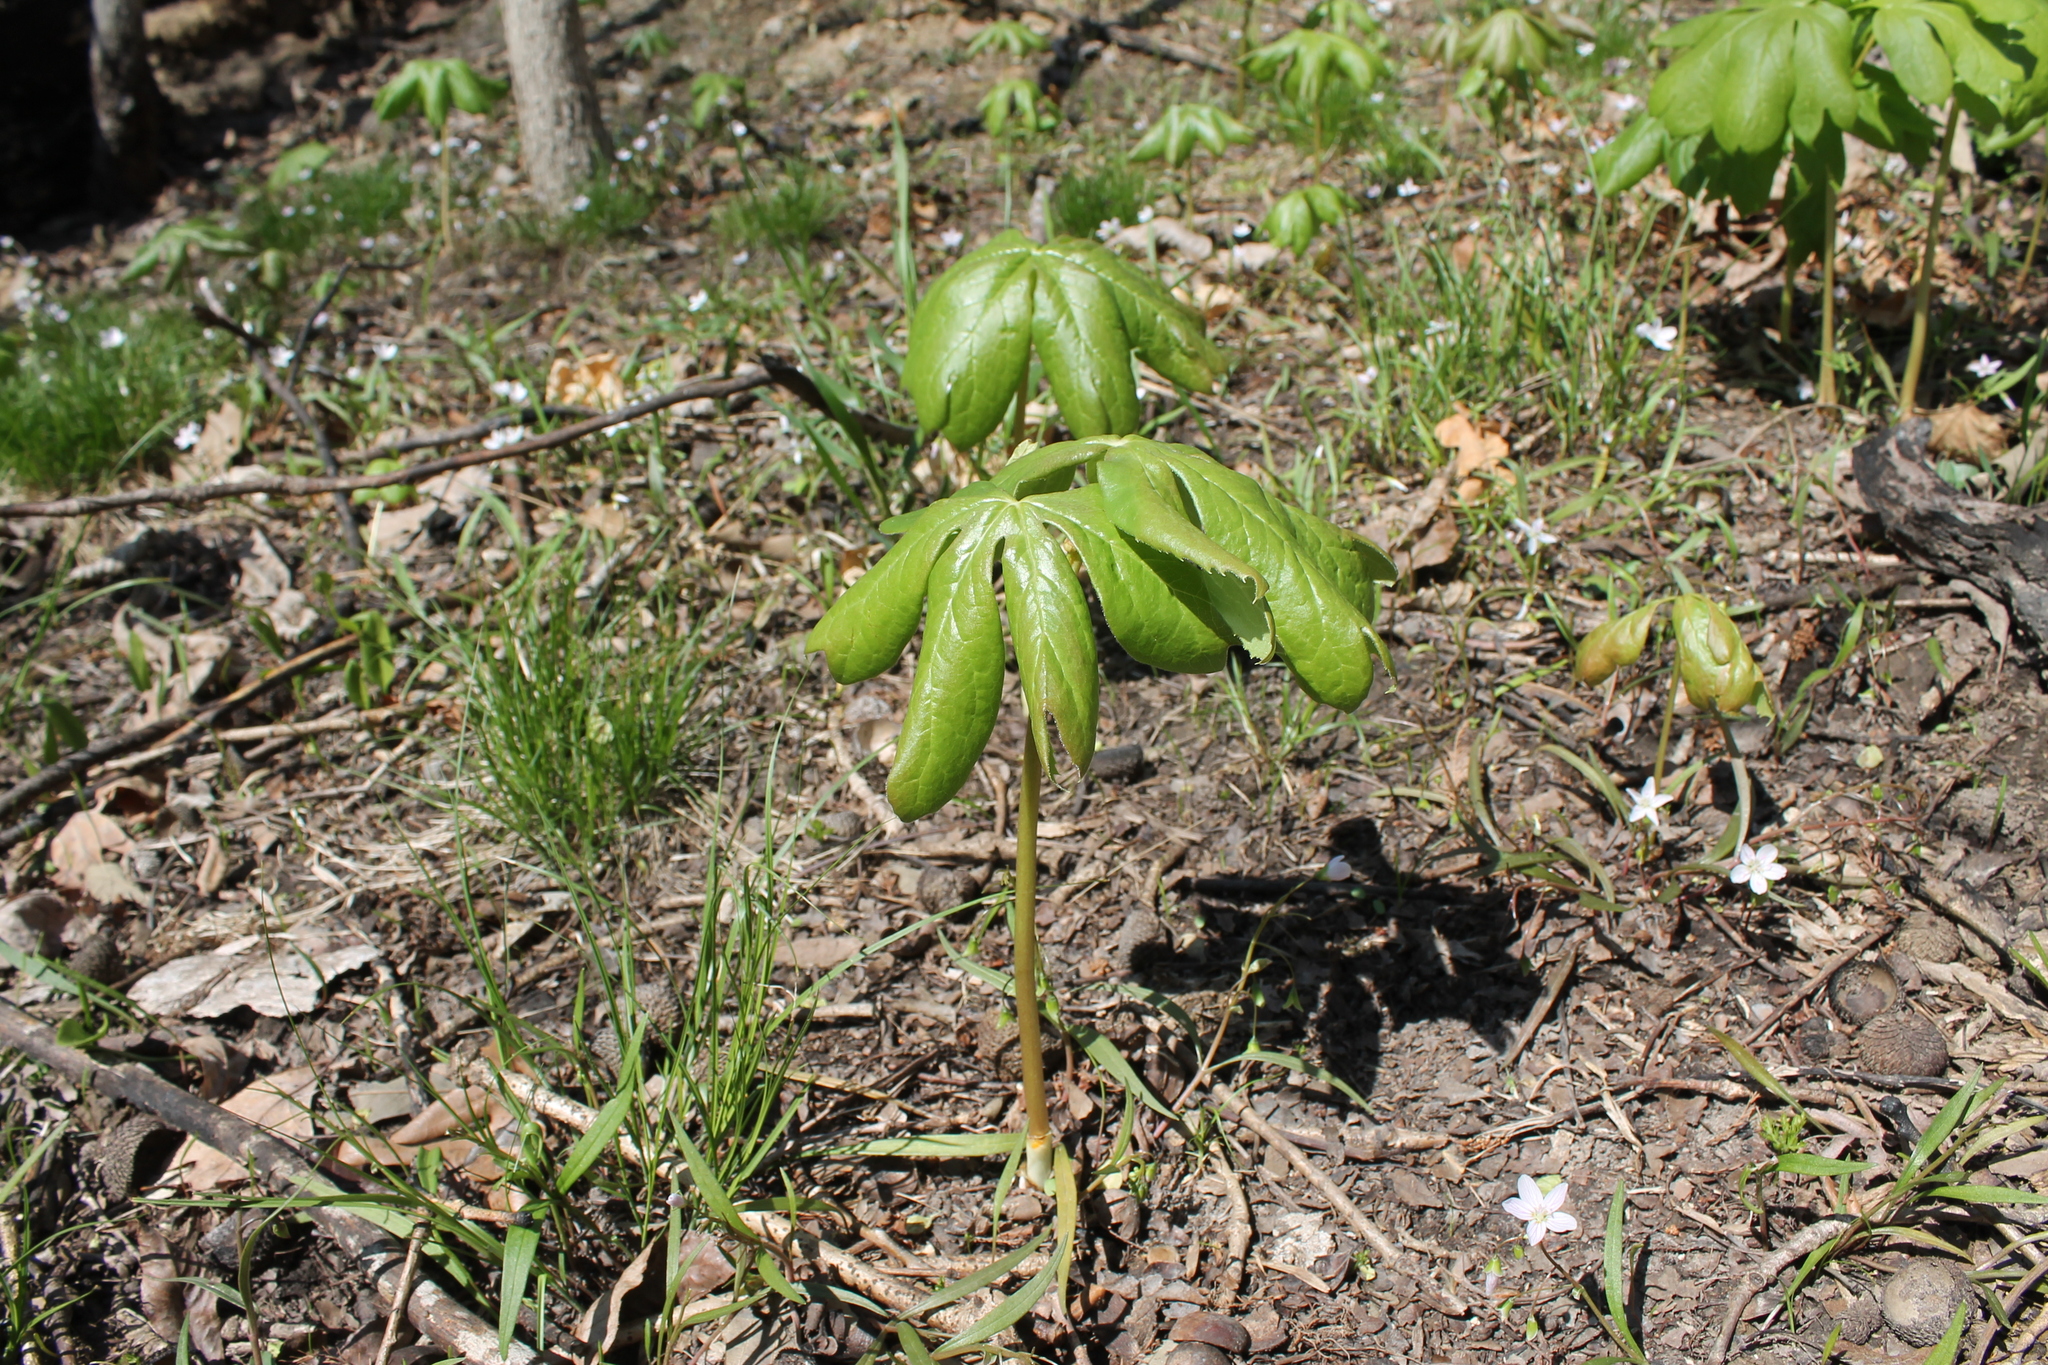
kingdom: Plantae
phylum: Tracheophyta
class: Magnoliopsida
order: Ranunculales
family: Berberidaceae
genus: Podophyllum
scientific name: Podophyllum peltatum
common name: Wild mandrake
